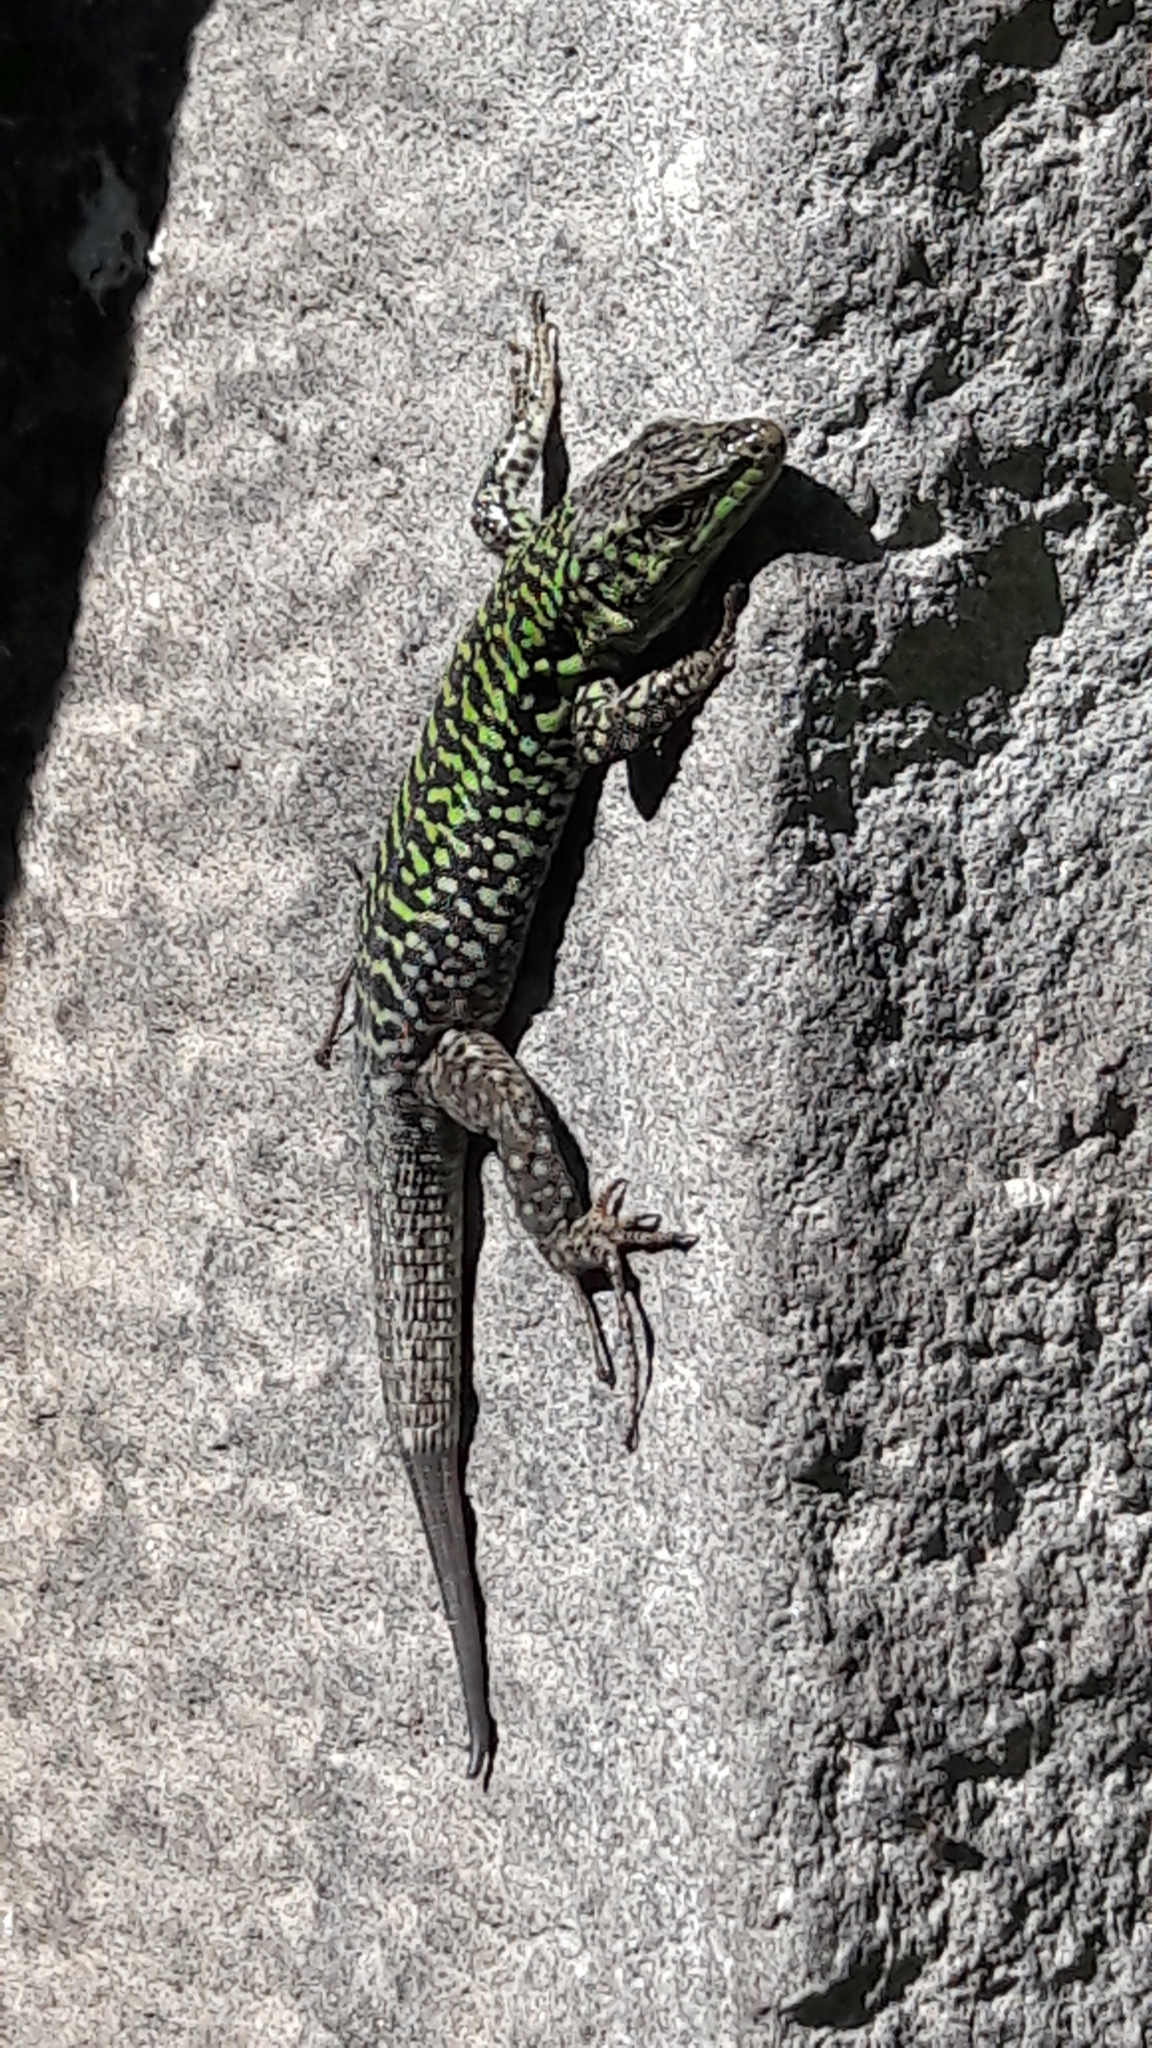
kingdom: Animalia
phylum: Chordata
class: Squamata
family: Lacertidae
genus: Podarcis
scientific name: Podarcis siculus
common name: Italian wall lizard
